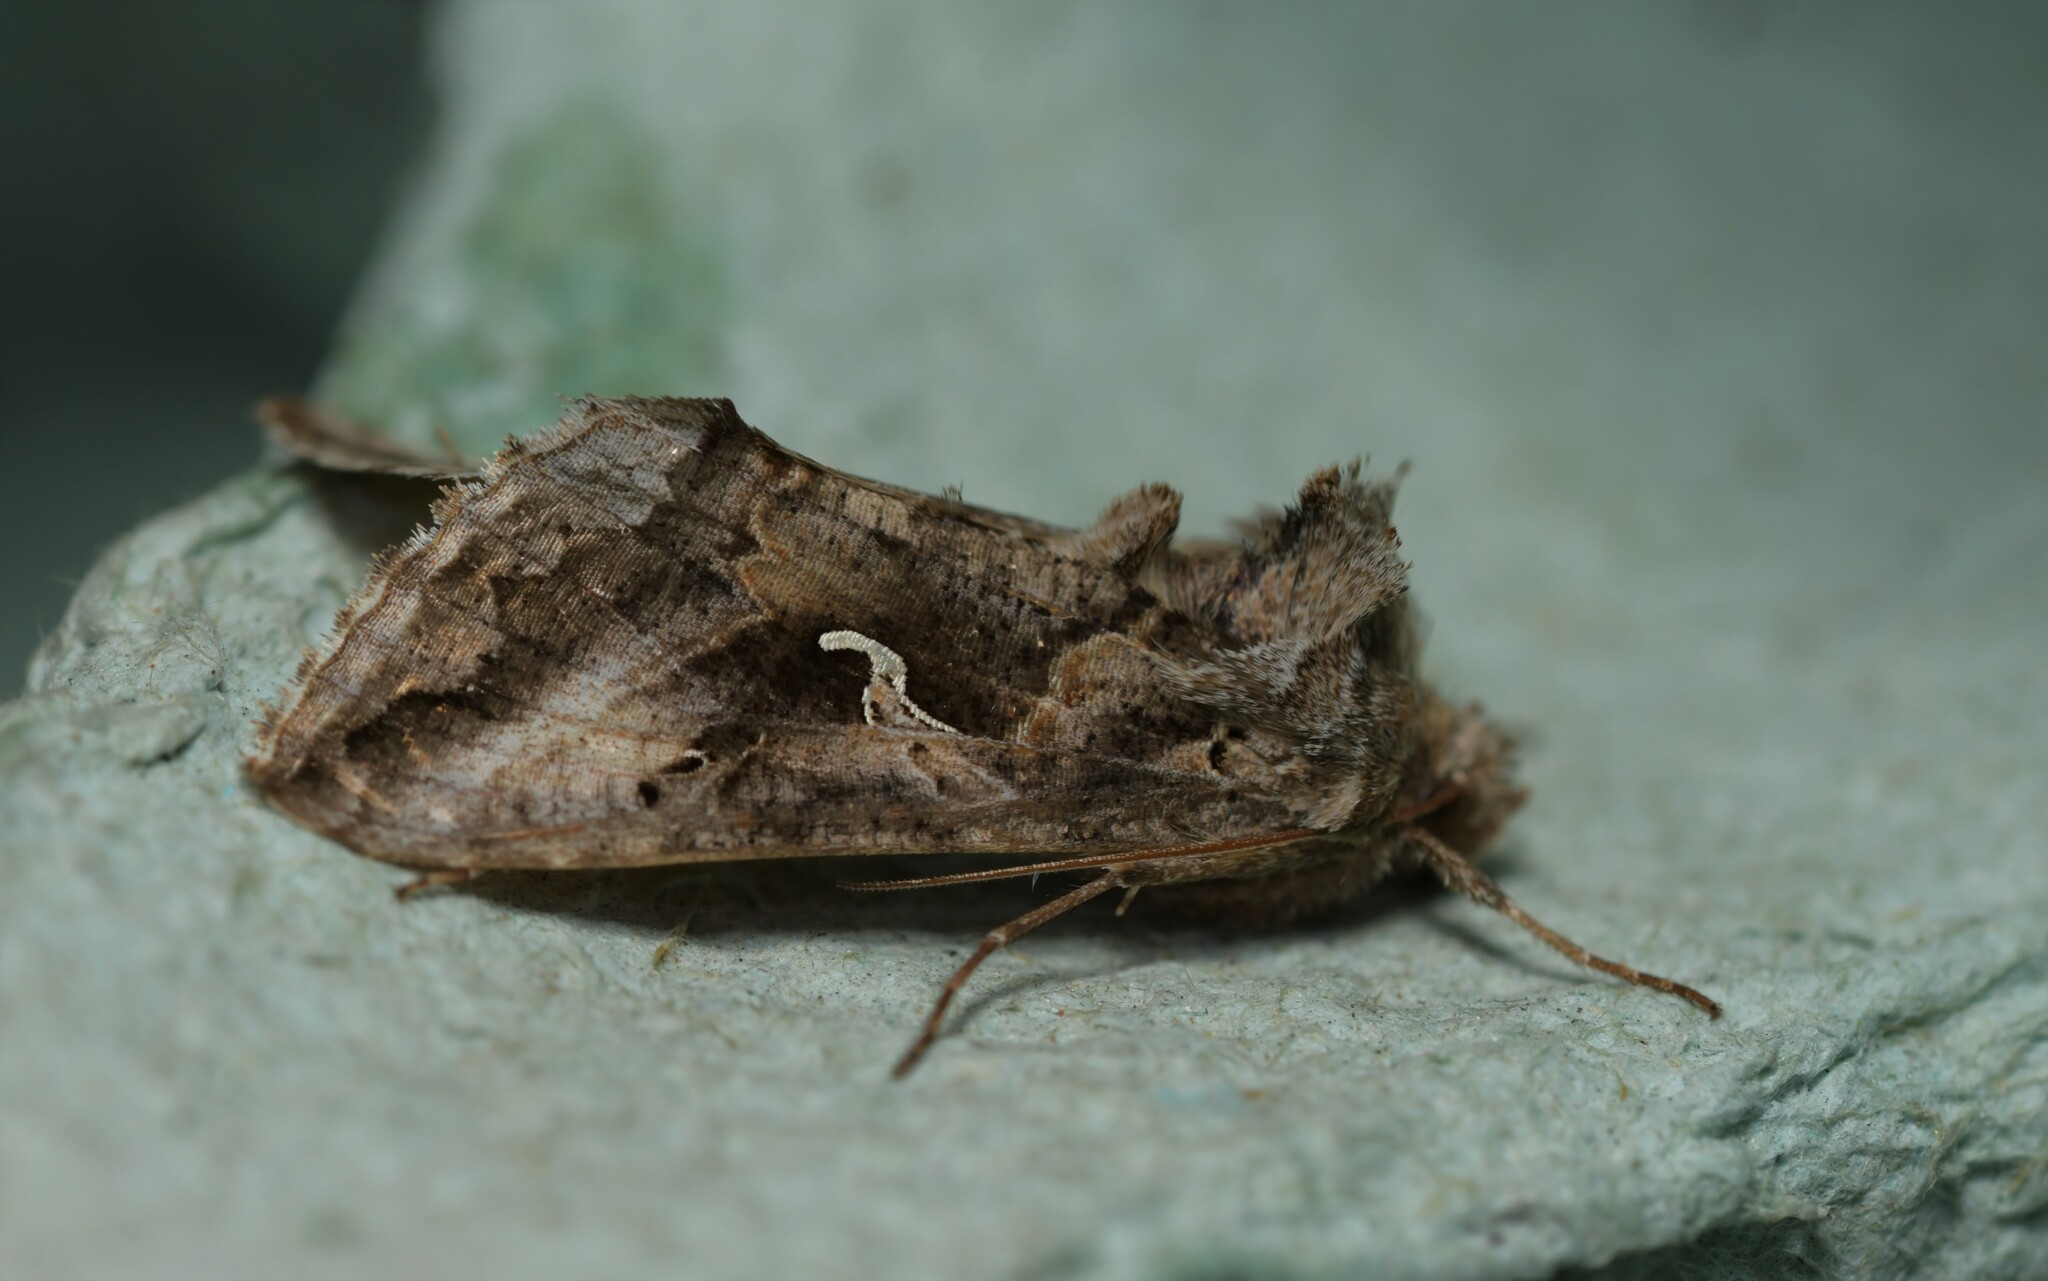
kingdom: Animalia
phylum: Arthropoda
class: Insecta
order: Lepidoptera
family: Noctuidae
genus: Autographa
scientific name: Autographa gamma
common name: Silver y
